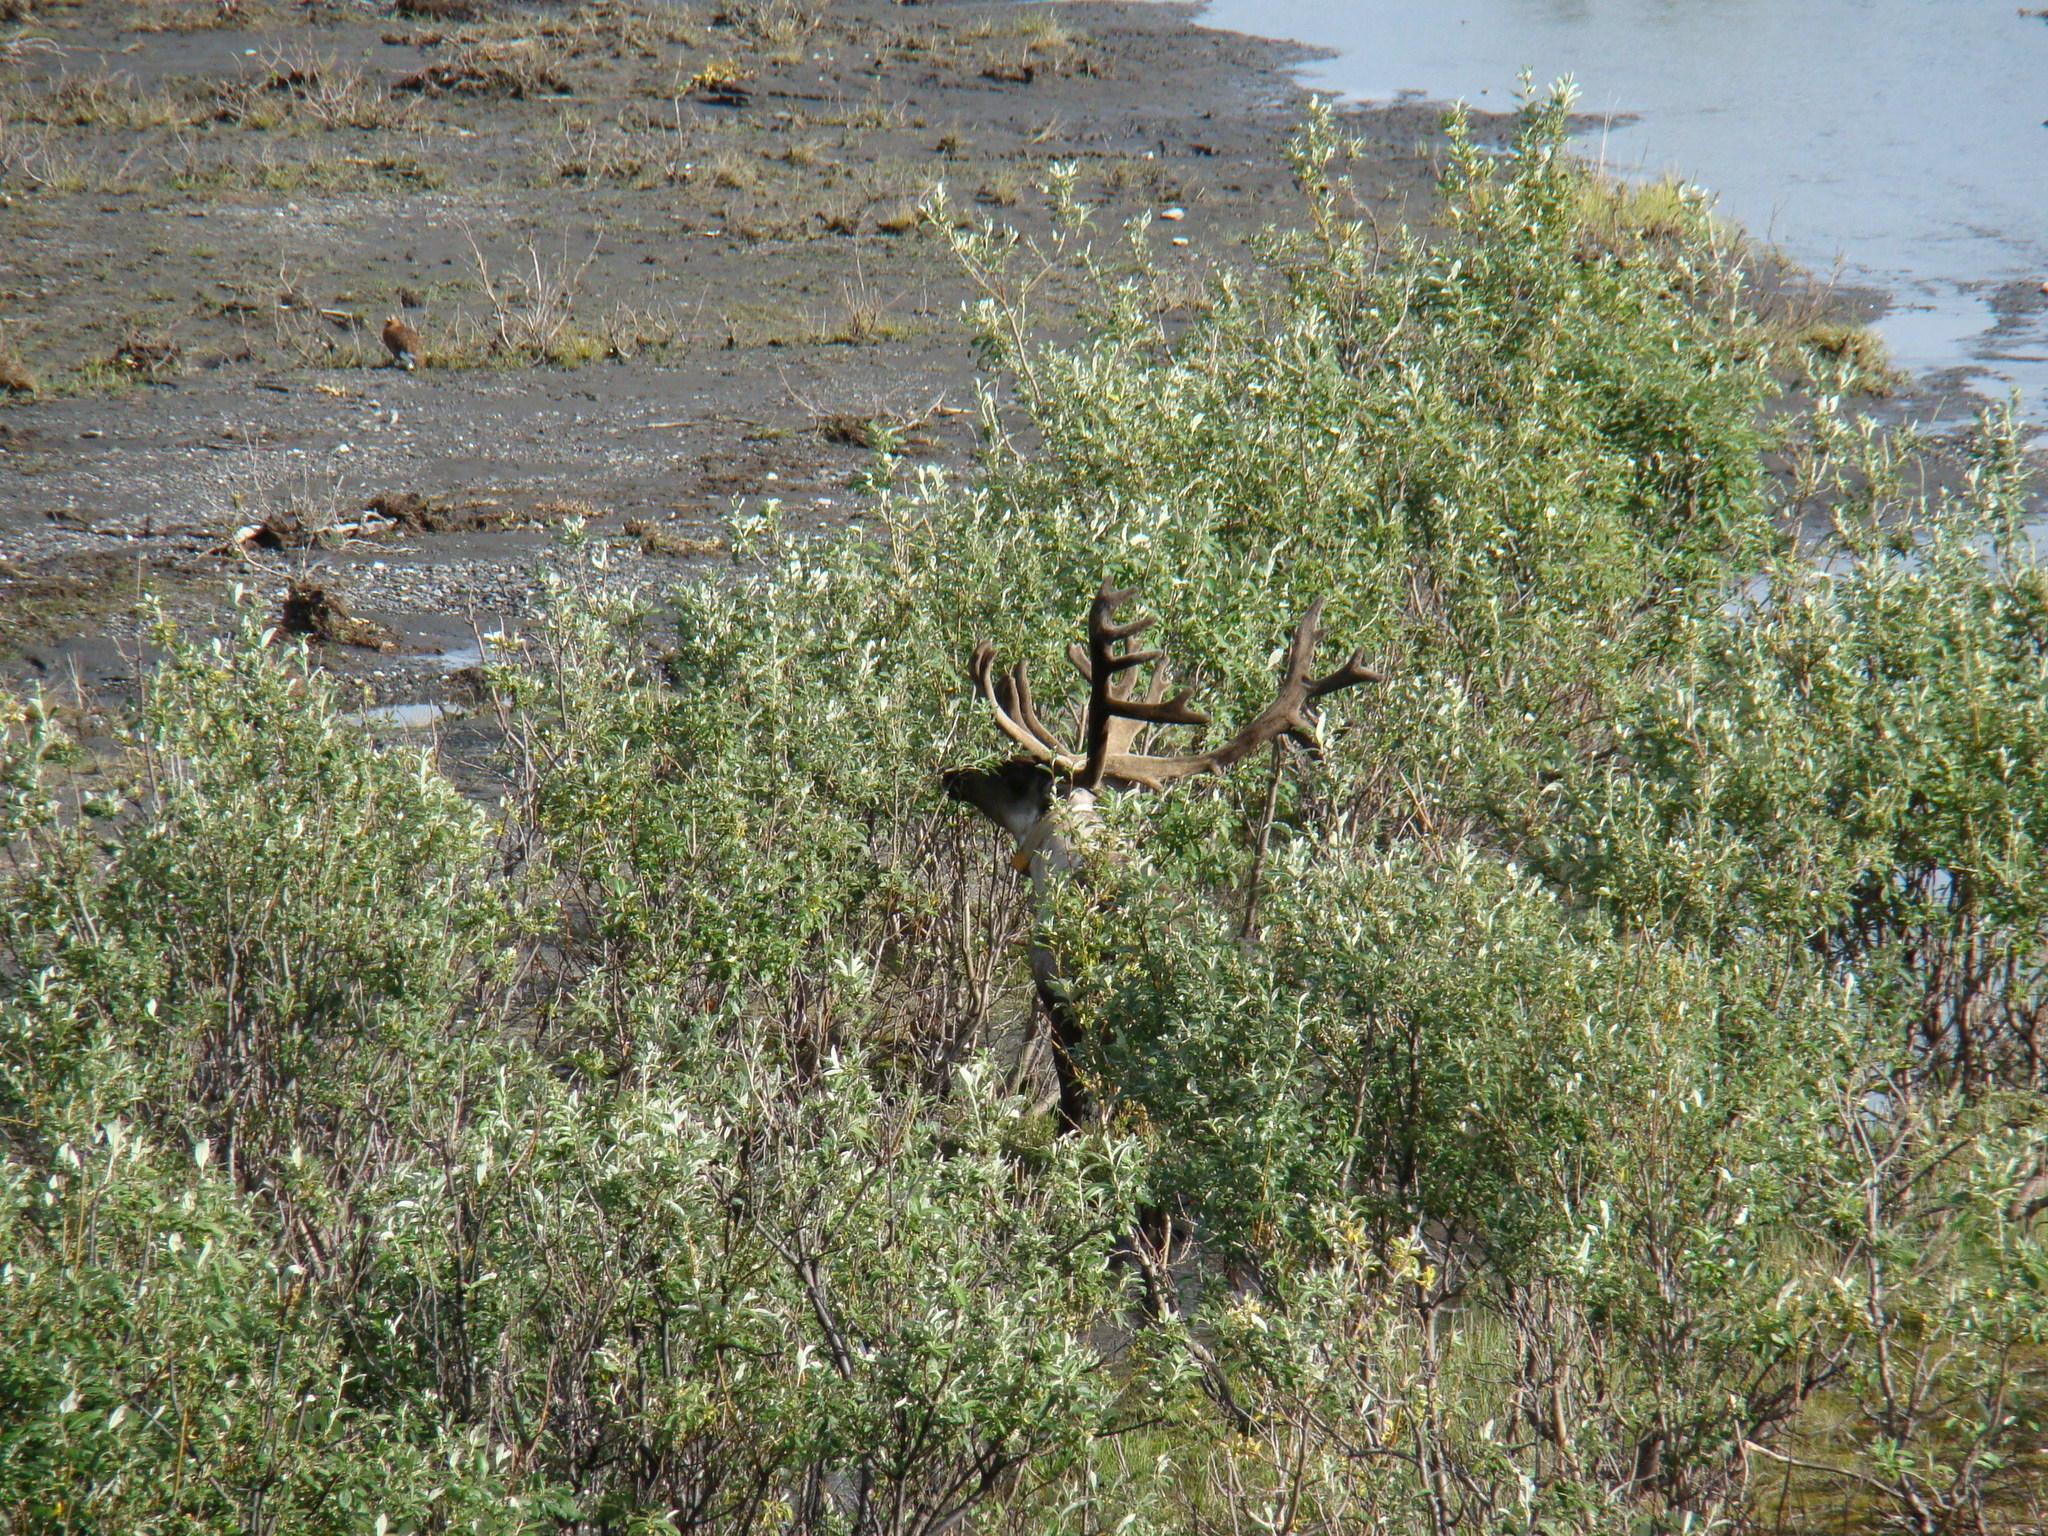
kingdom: Animalia
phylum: Chordata
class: Mammalia
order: Artiodactyla
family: Cervidae
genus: Rangifer
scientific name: Rangifer tarandus
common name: Reindeer
